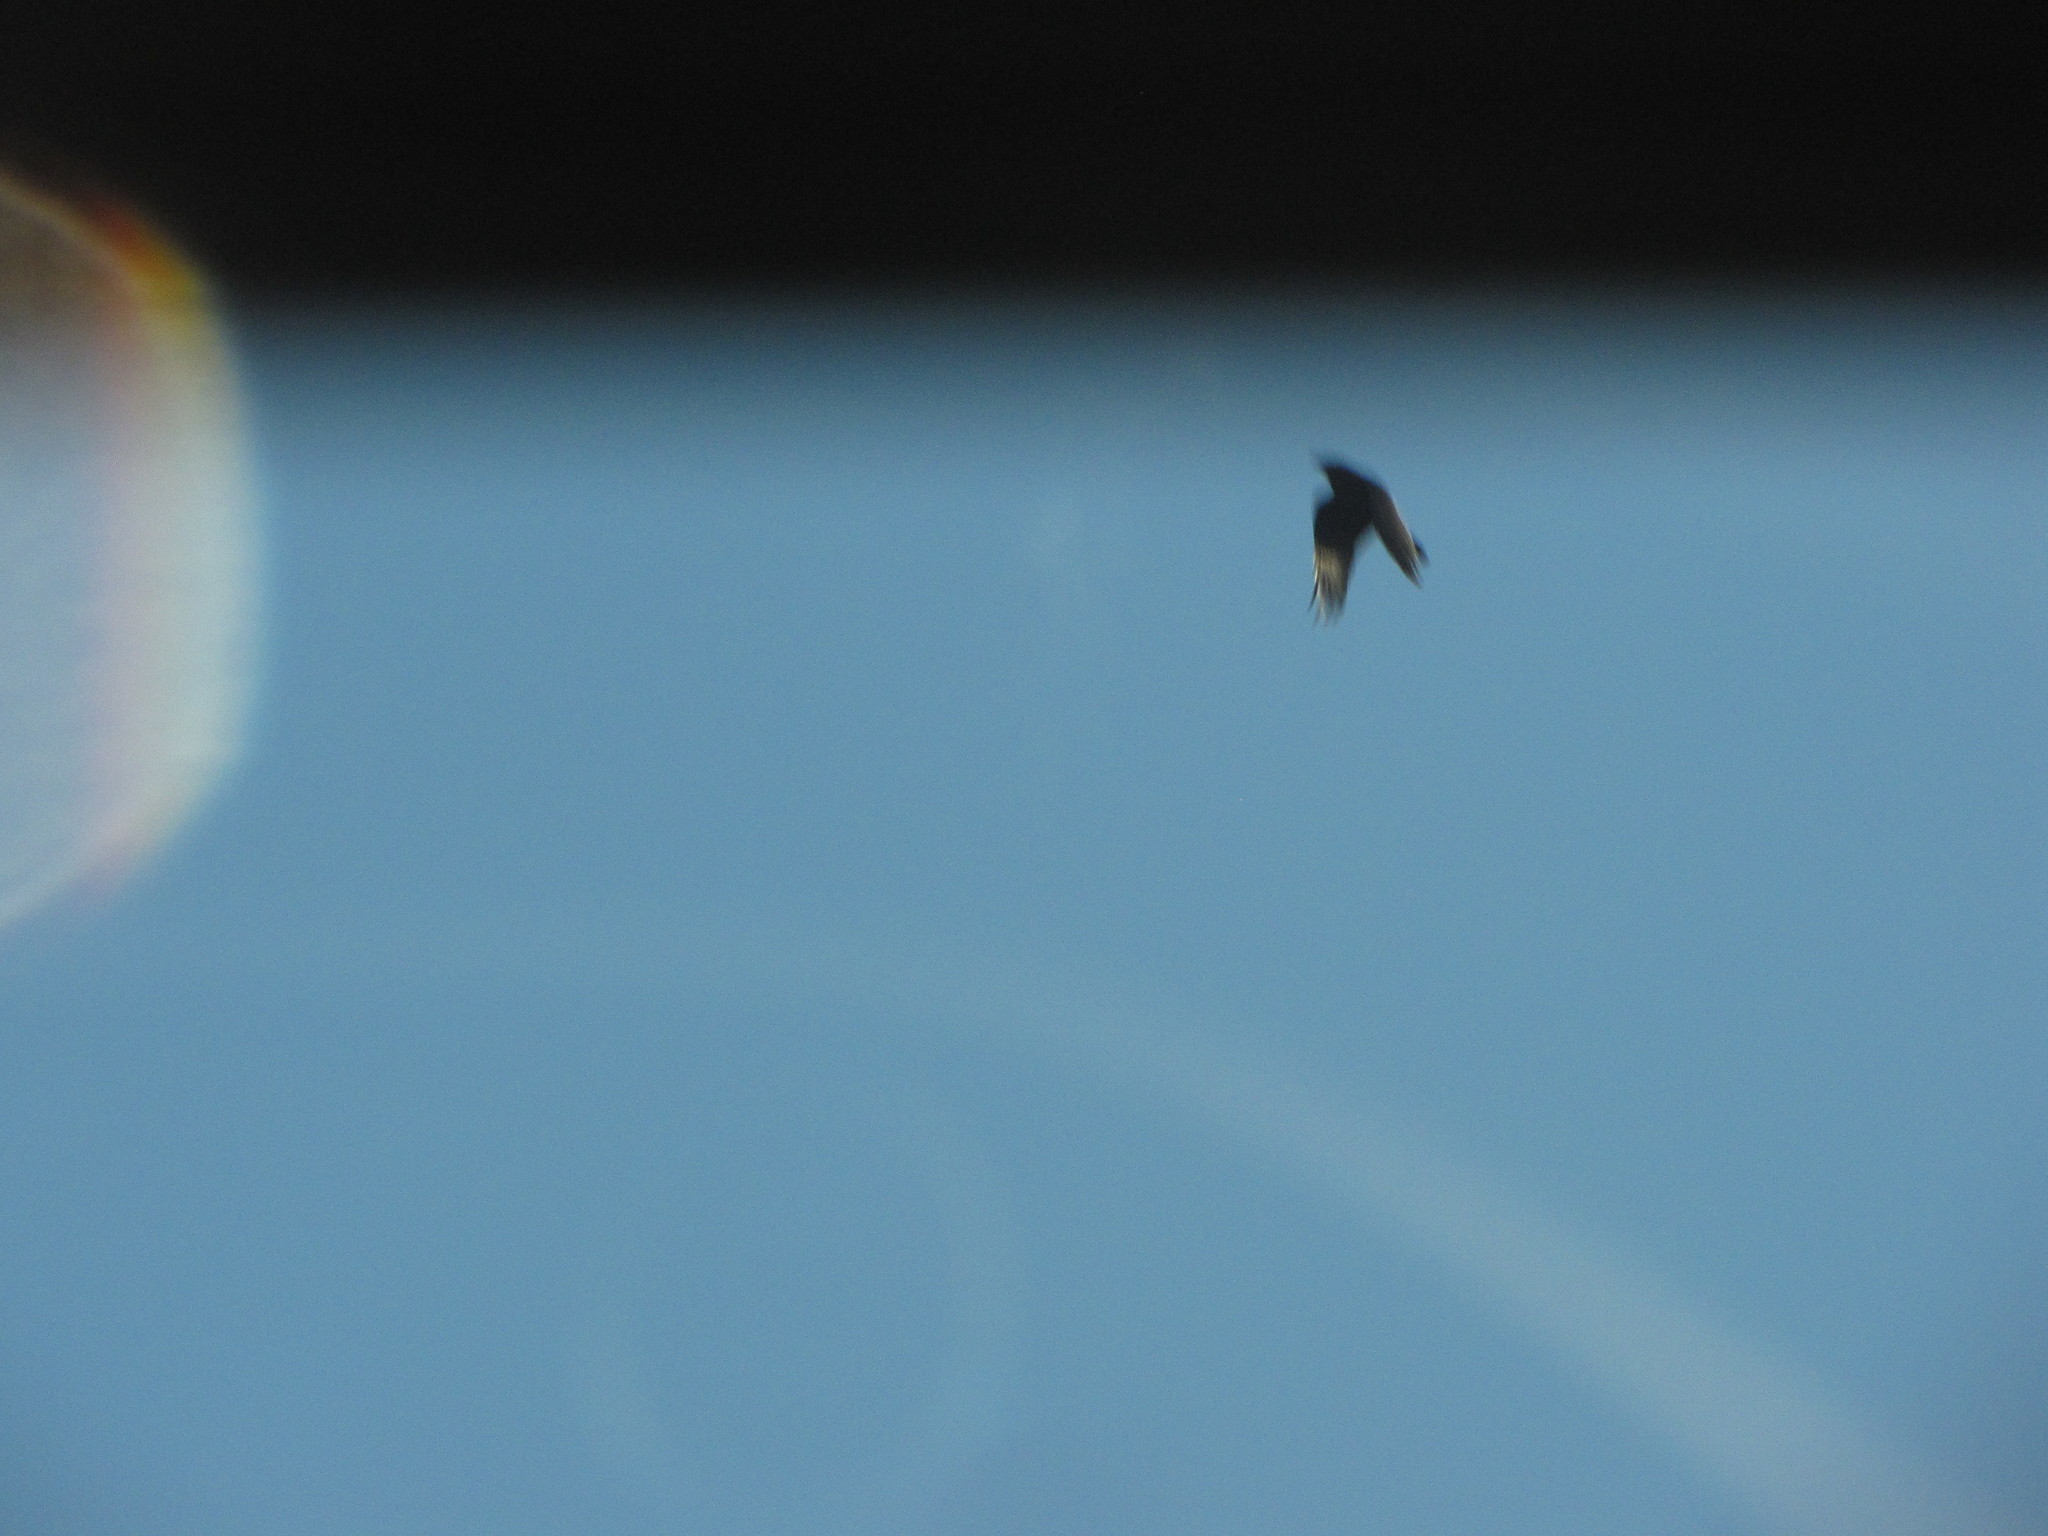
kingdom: Animalia
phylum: Chordata
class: Aves
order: Passeriformes
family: Corvidae
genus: Corvus
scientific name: Corvus brachyrhynchos
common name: American crow
